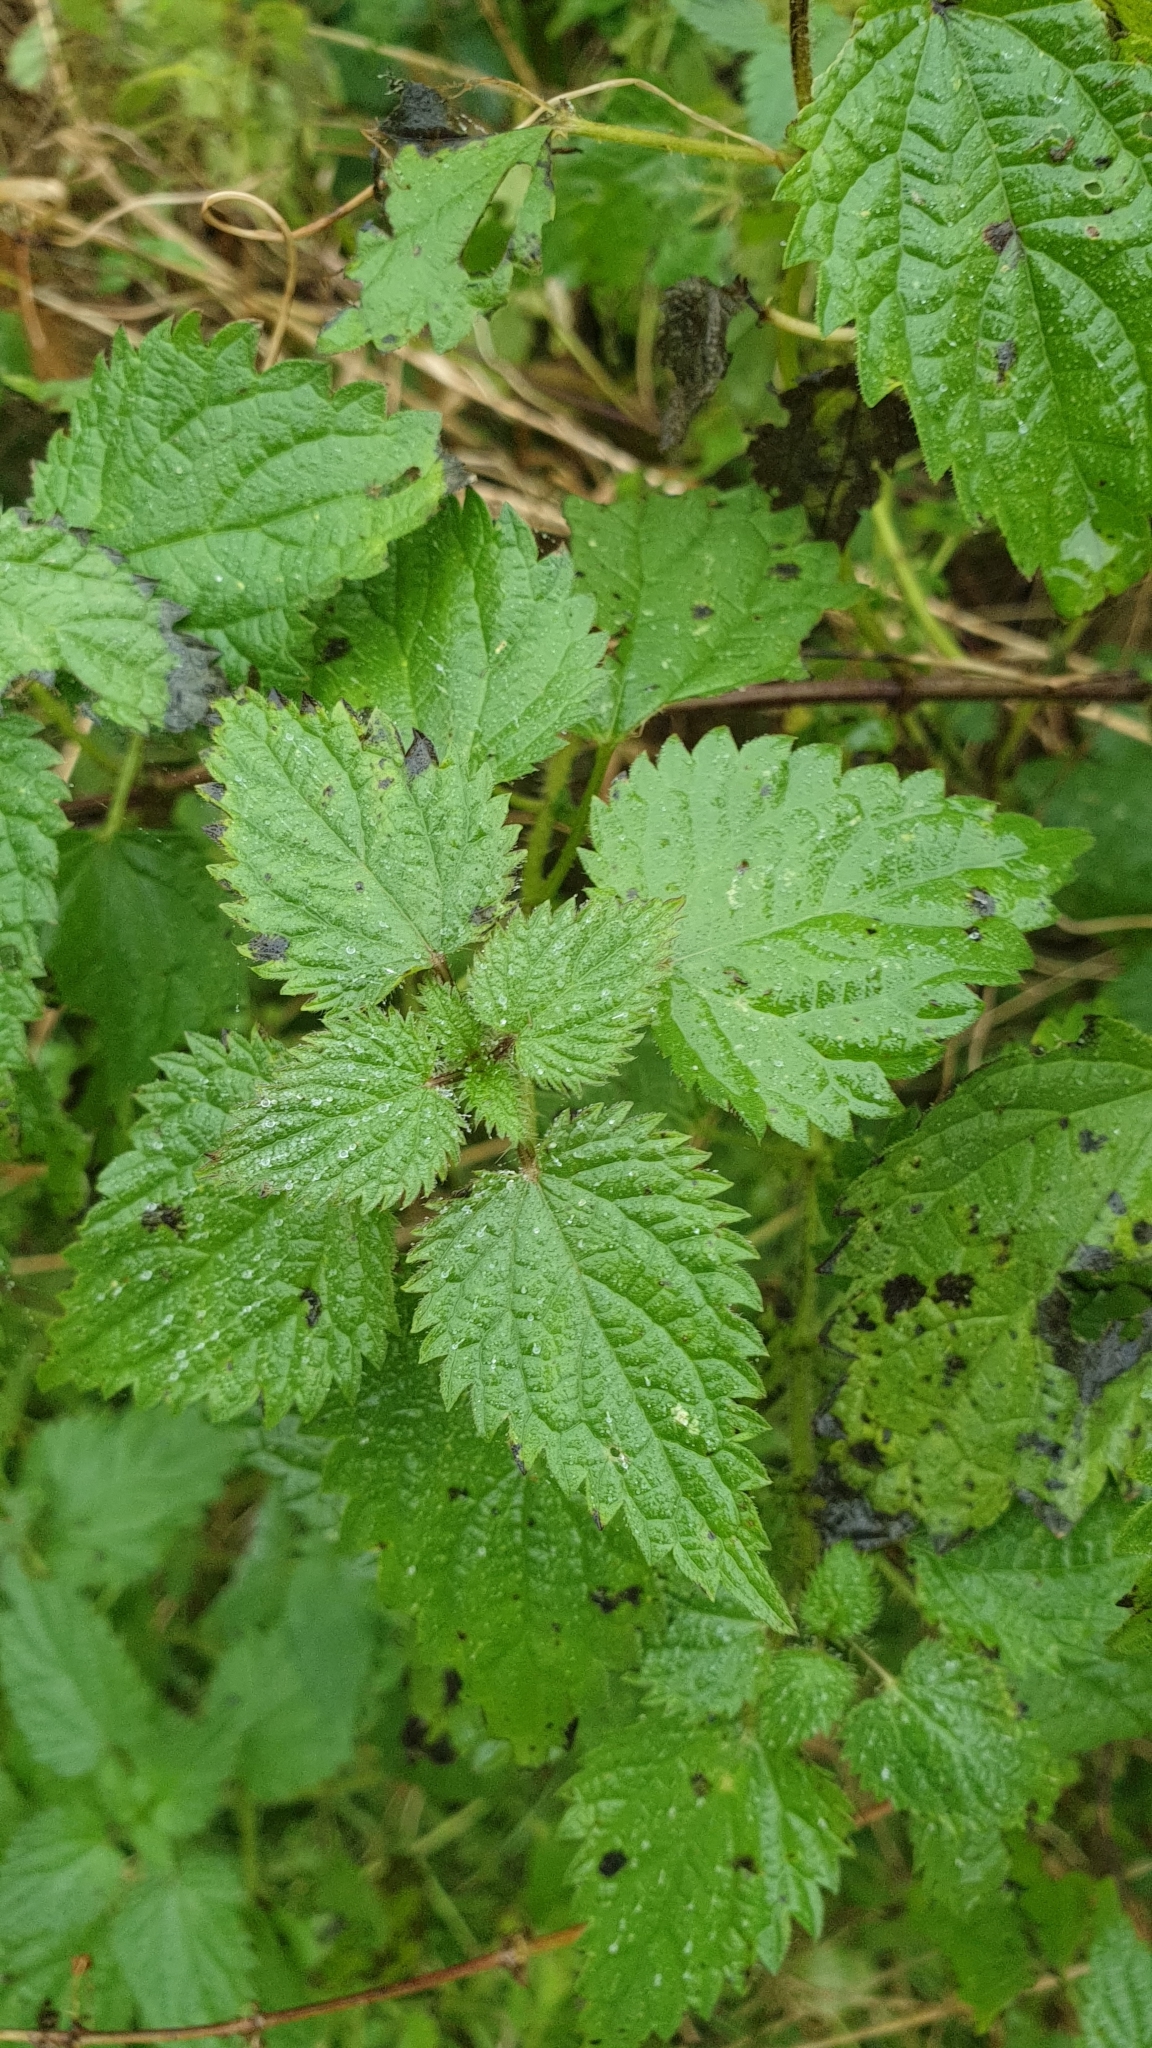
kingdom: Plantae
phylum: Tracheophyta
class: Magnoliopsida
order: Rosales
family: Urticaceae
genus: Urtica
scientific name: Urtica dioica
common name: Common nettle
